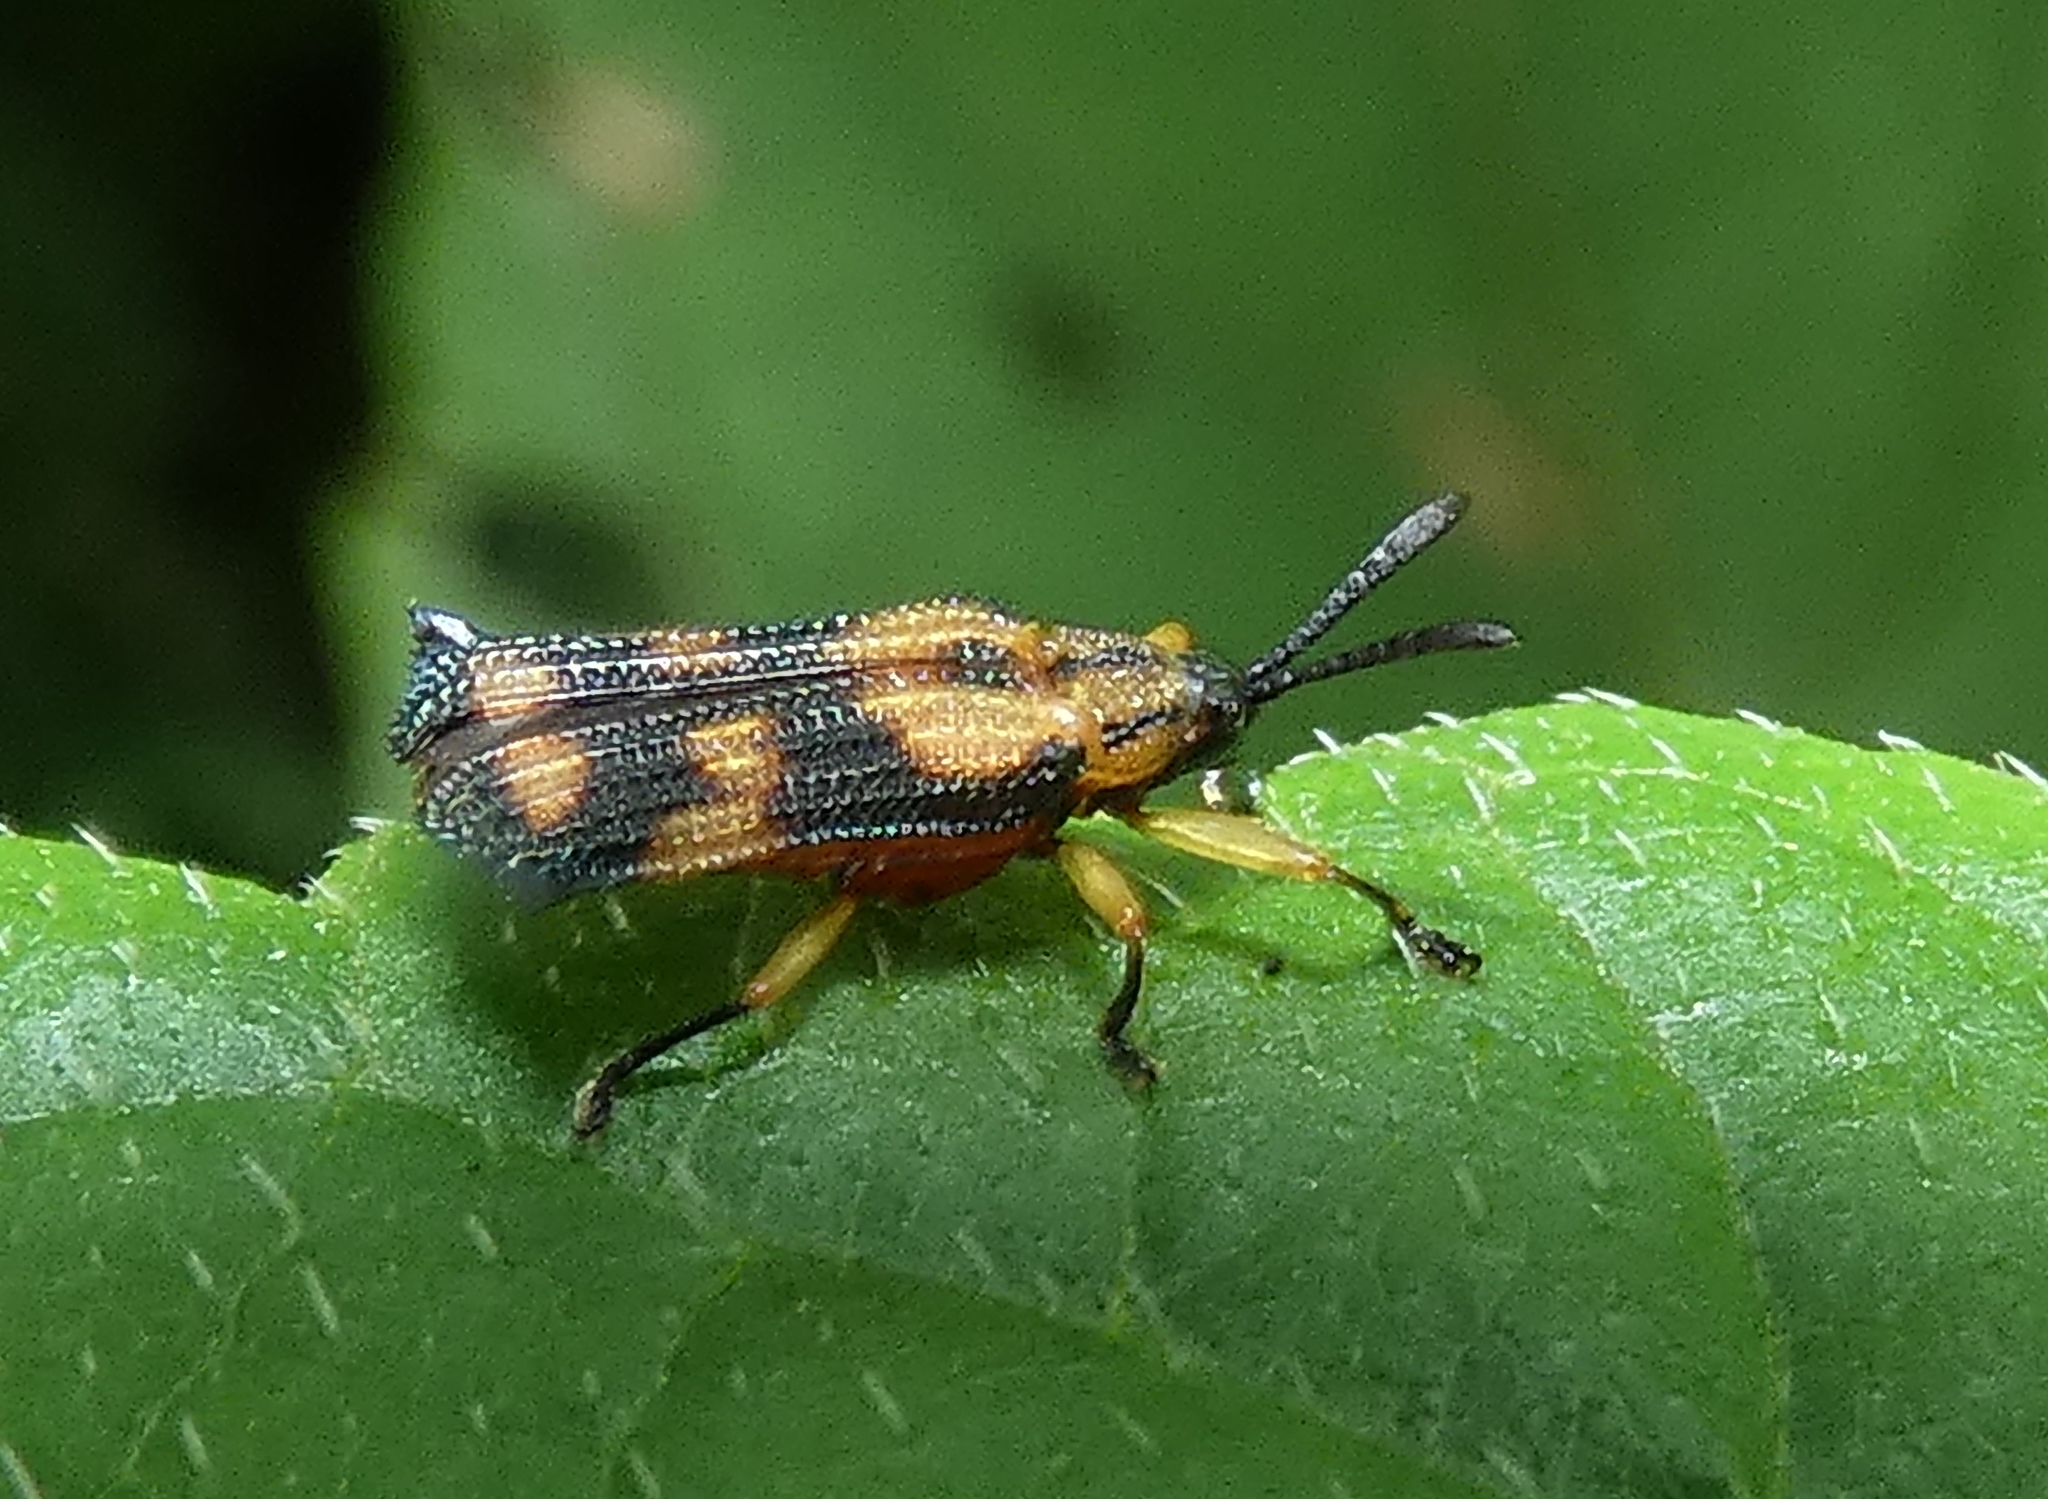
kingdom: Animalia
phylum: Arthropoda
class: Insecta
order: Coleoptera
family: Chrysomelidae
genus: Probaenia
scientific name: Probaenia luteonotata
